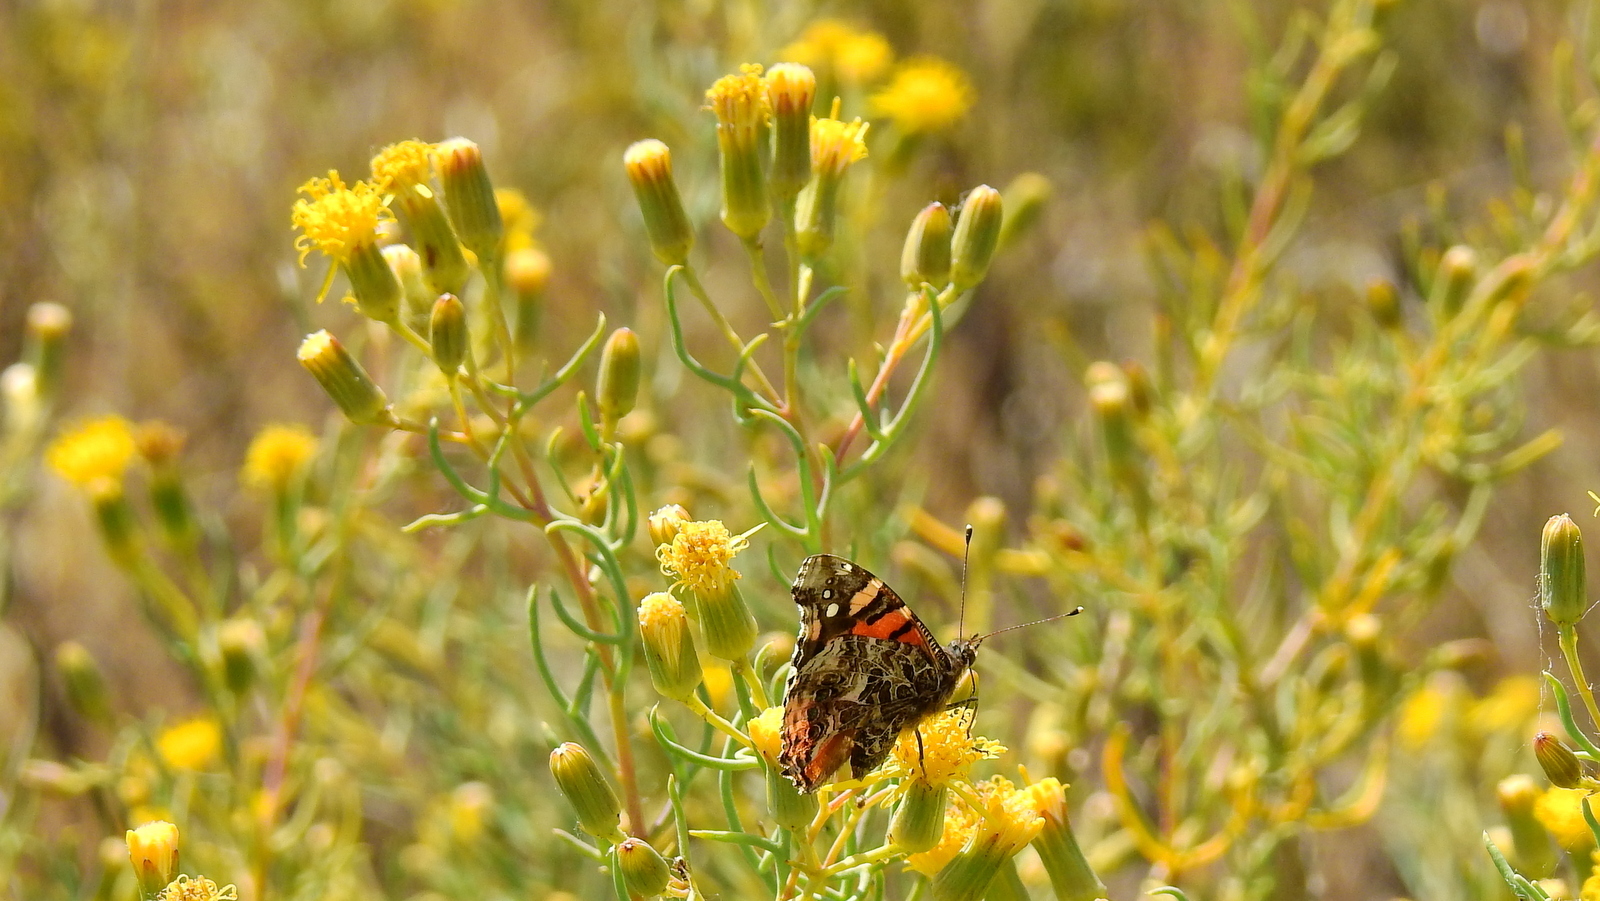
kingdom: Animalia
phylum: Arthropoda
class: Insecta
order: Lepidoptera
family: Nymphalidae
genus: Vanessa
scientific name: Vanessa carye
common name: Subtropical lady
